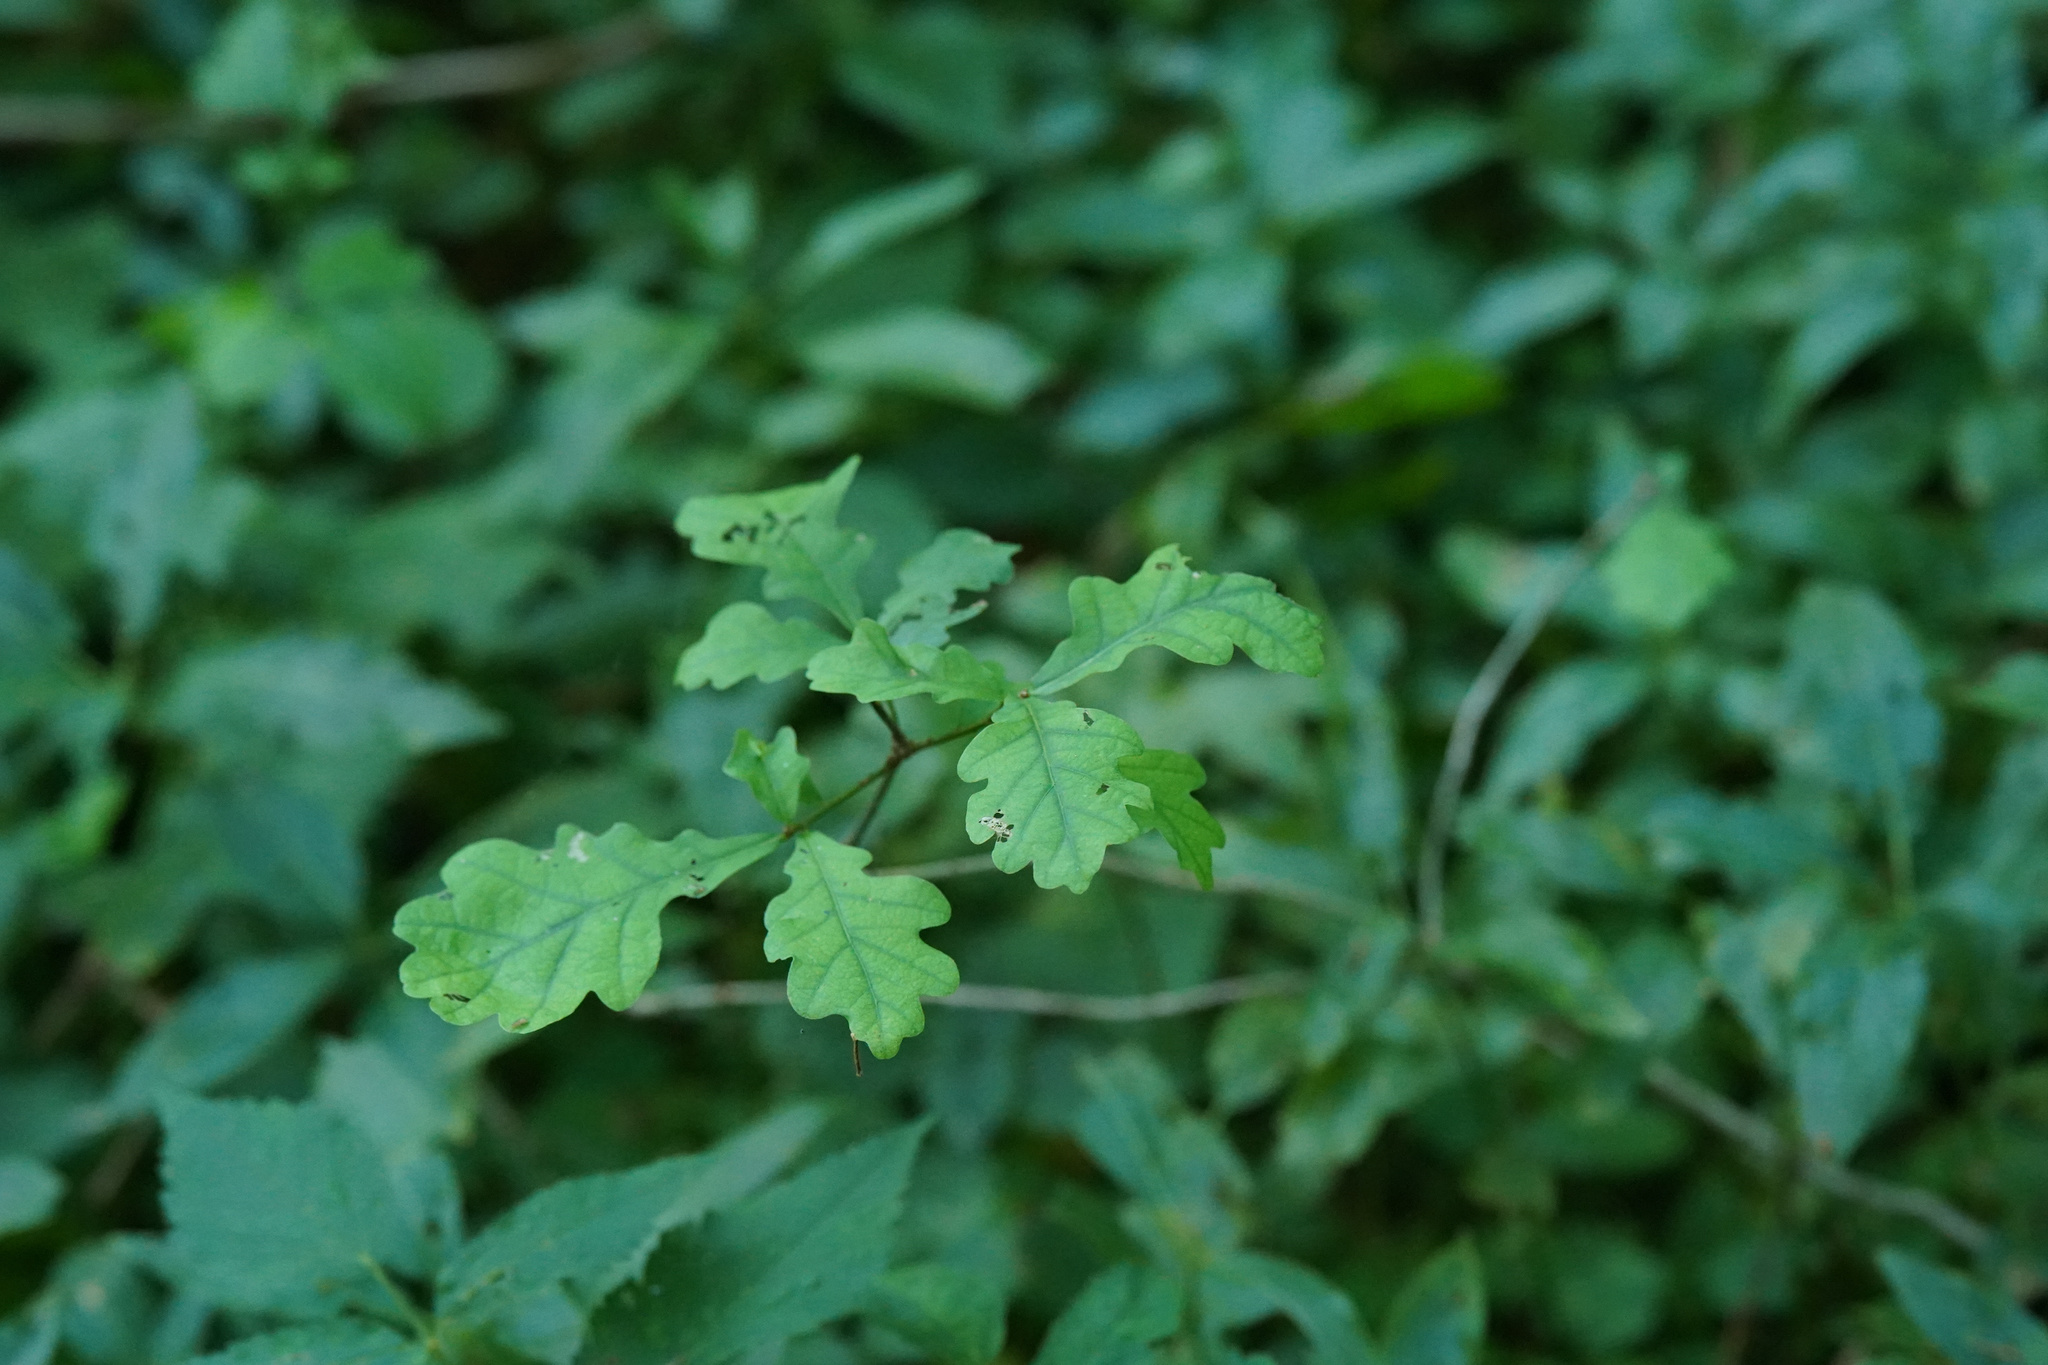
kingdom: Plantae
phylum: Tracheophyta
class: Magnoliopsida
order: Fagales
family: Fagaceae
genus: Quercus
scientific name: Quercus robur
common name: Pedunculate oak
